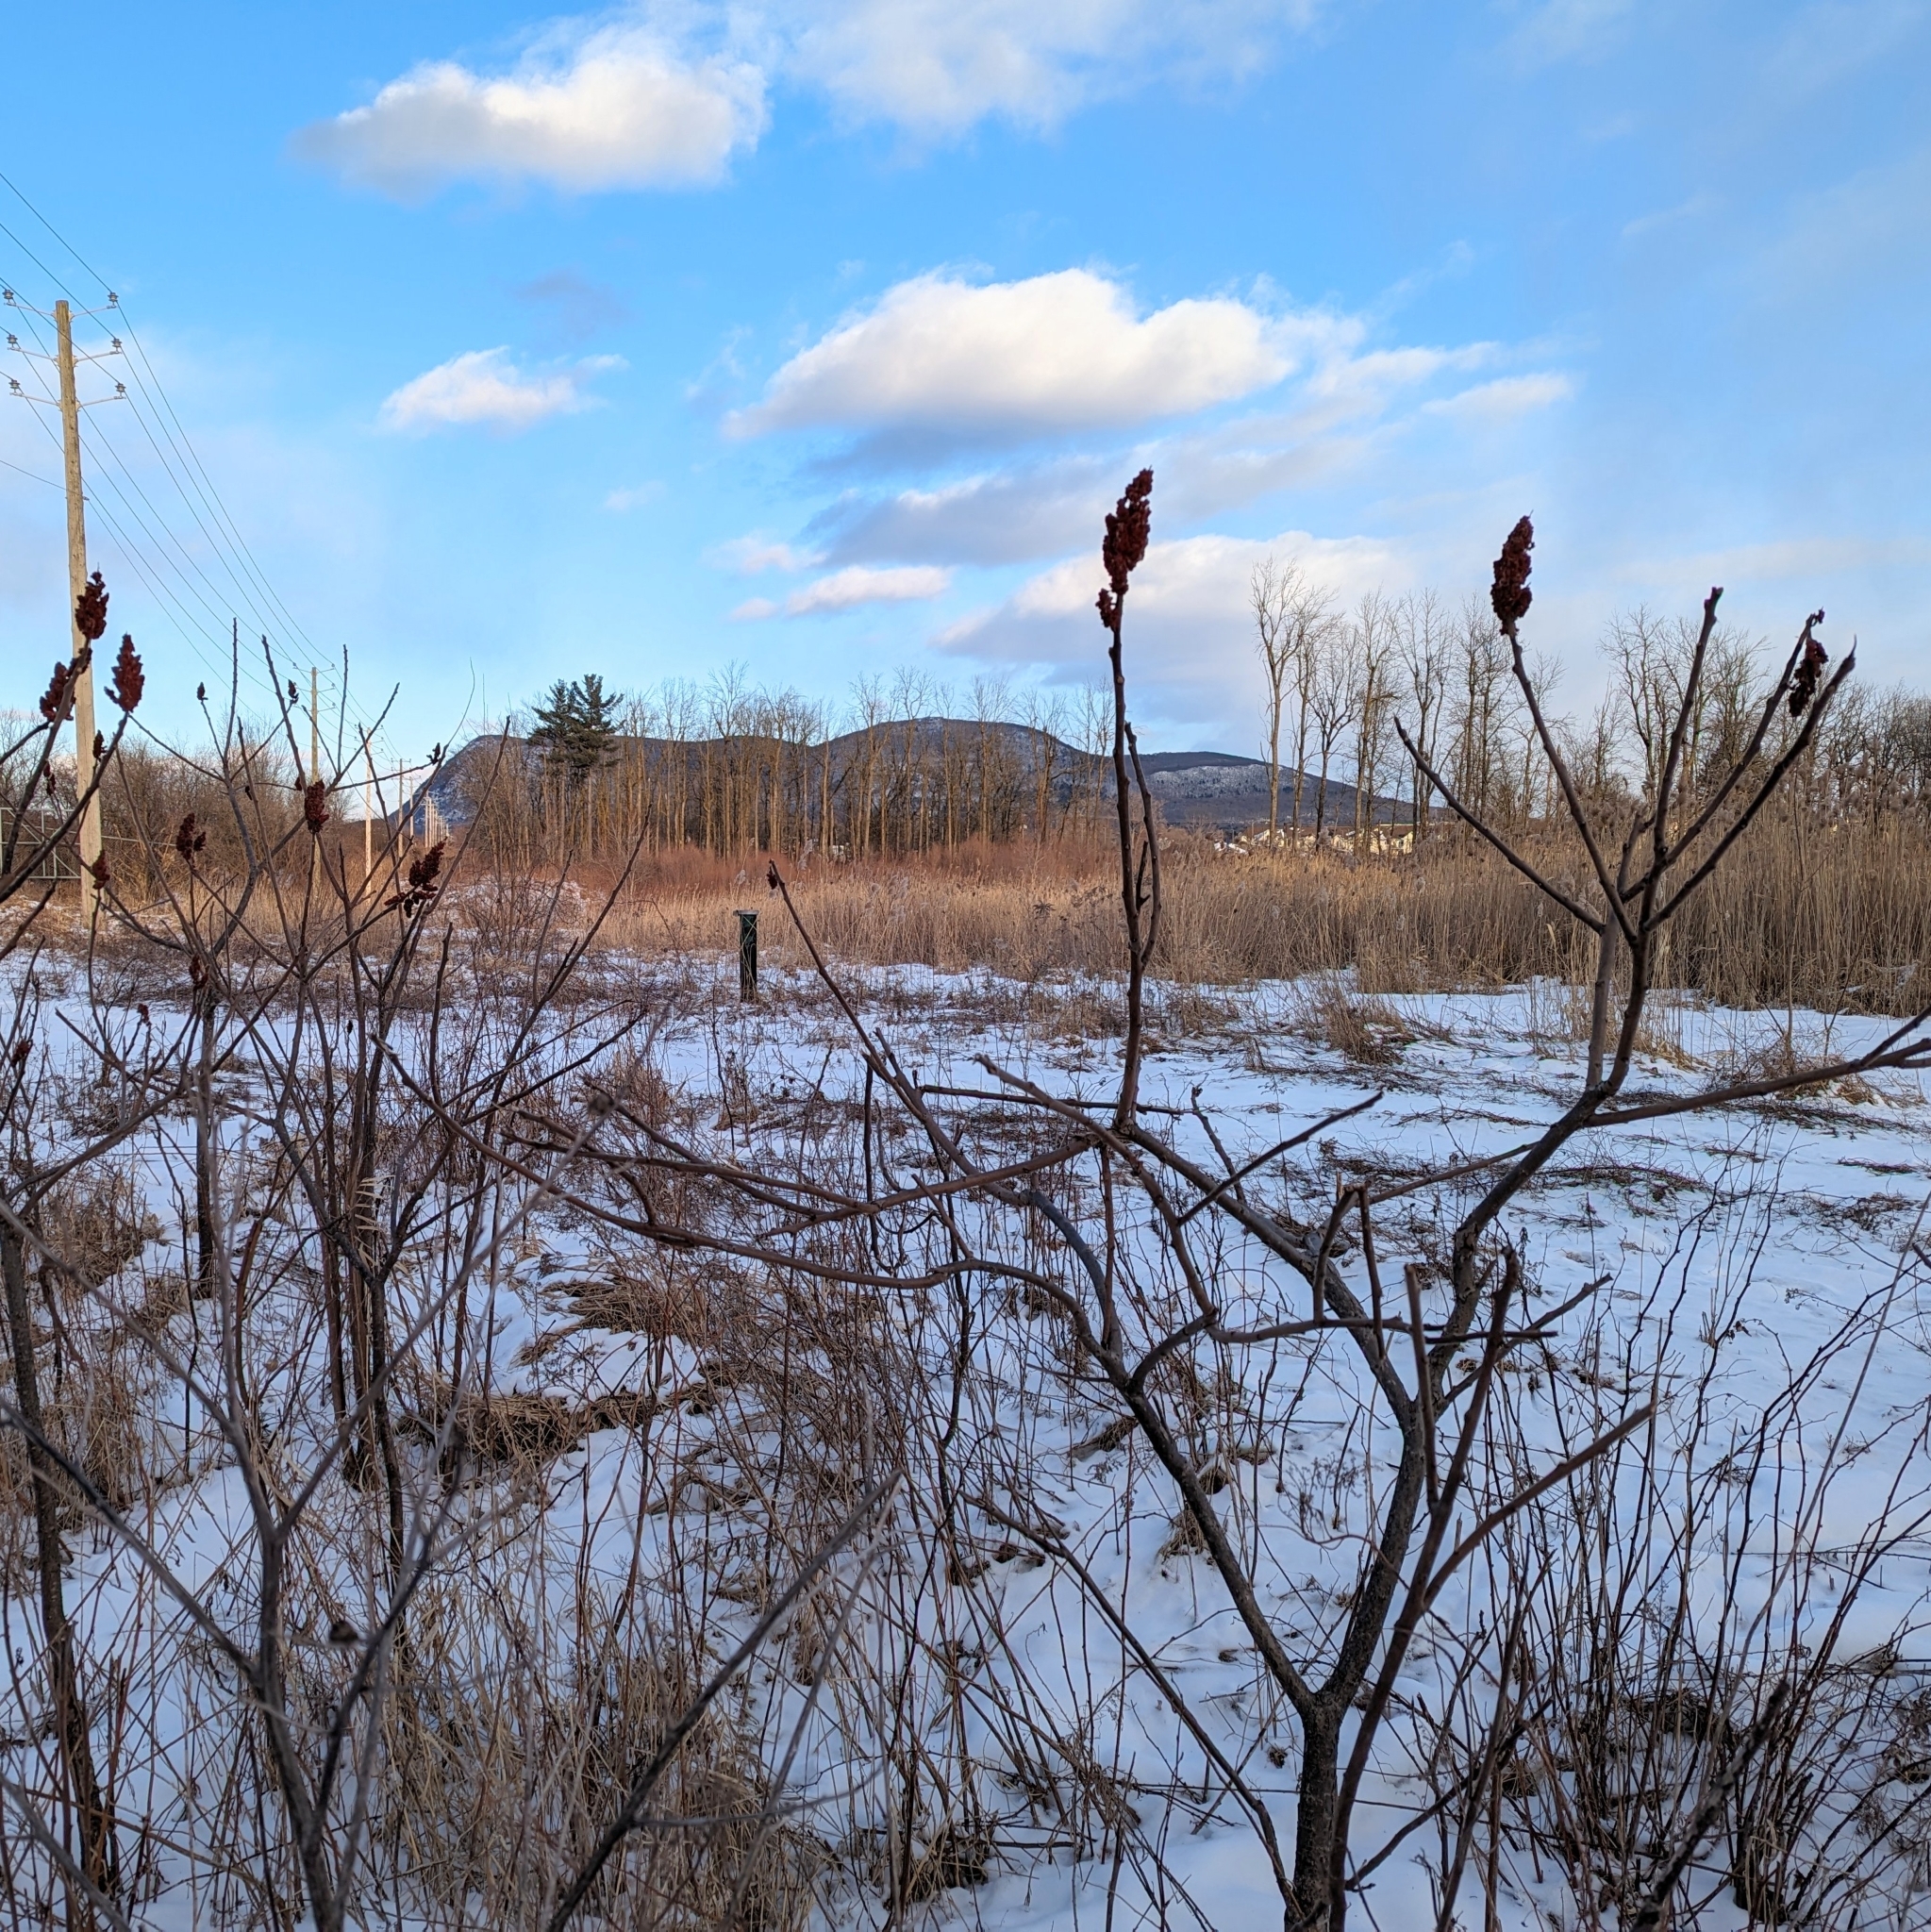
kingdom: Plantae
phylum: Tracheophyta
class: Magnoliopsida
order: Sapindales
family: Anacardiaceae
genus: Rhus
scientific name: Rhus typhina
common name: Staghorn sumac
